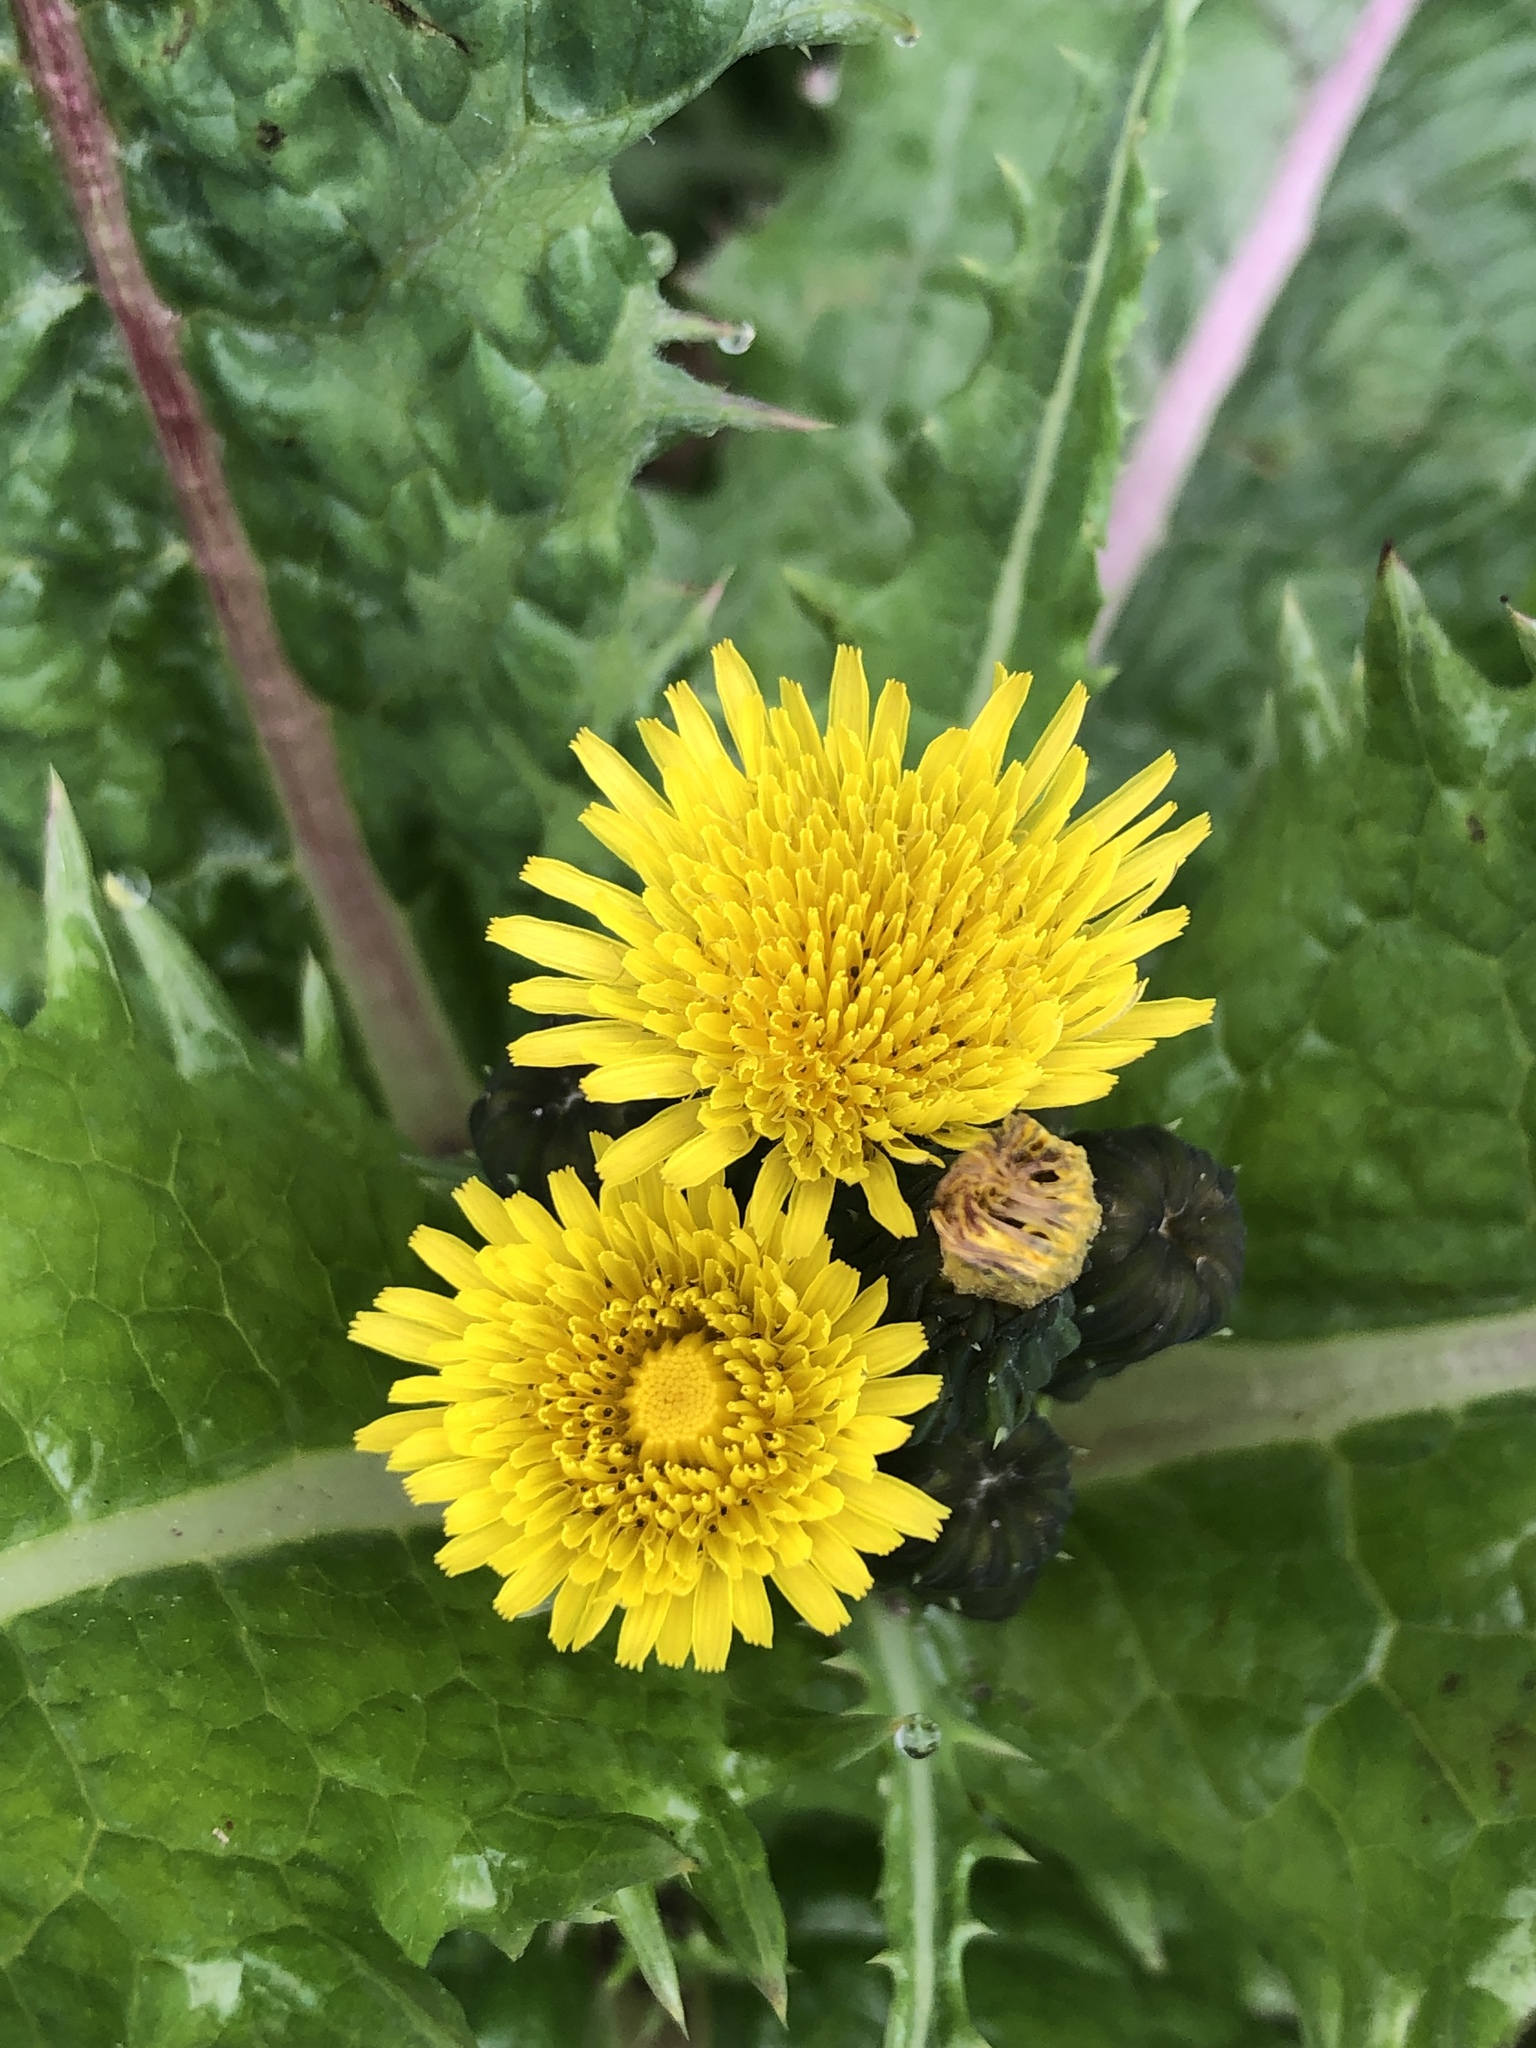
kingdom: Plantae
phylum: Tracheophyta
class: Magnoliopsida
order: Asterales
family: Asteraceae
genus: Sonchus
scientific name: Sonchus asper
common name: Prickly sow-thistle
